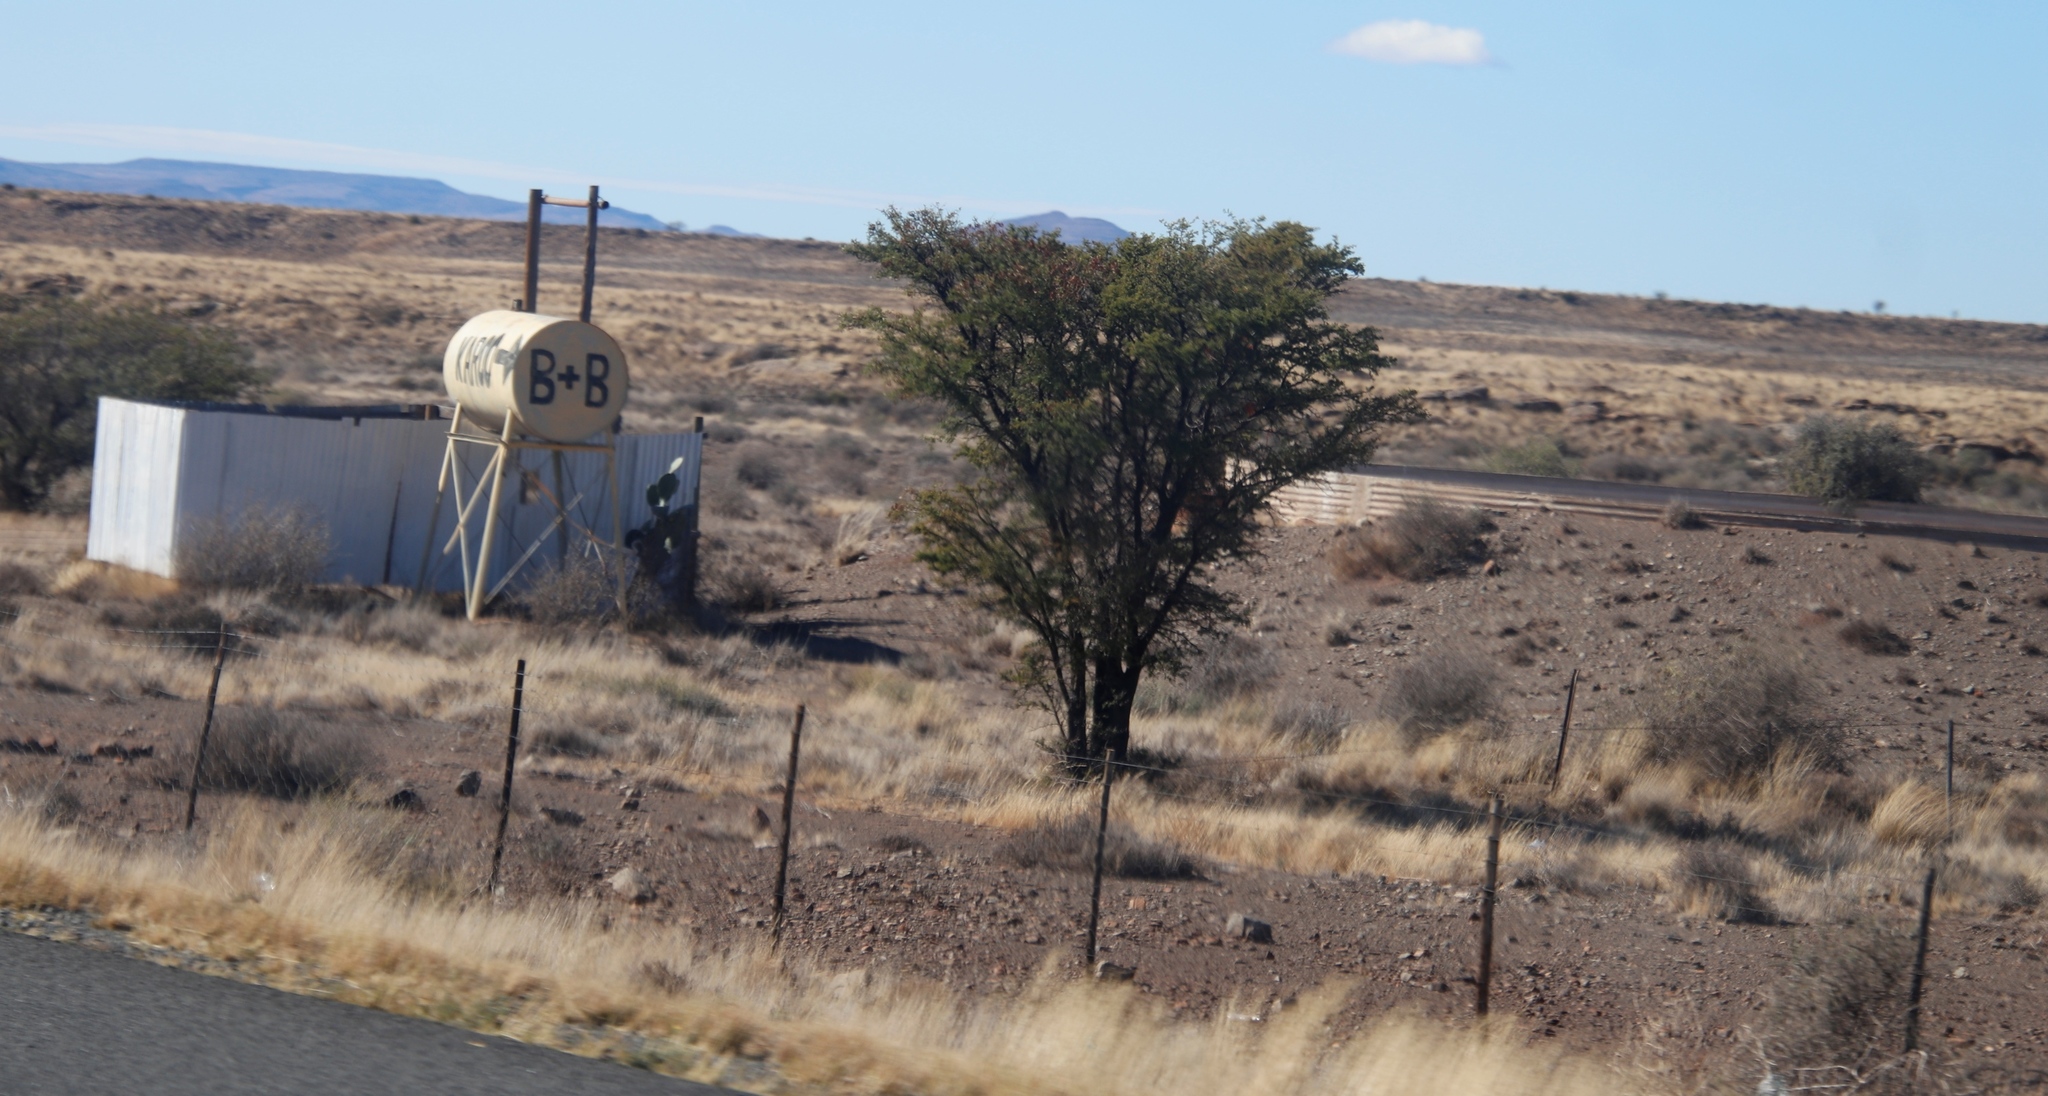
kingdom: Plantae
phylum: Tracheophyta
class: Magnoliopsida
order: Fabales
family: Fabaceae
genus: Vachellia
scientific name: Vachellia karroo
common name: Sweet thorn
